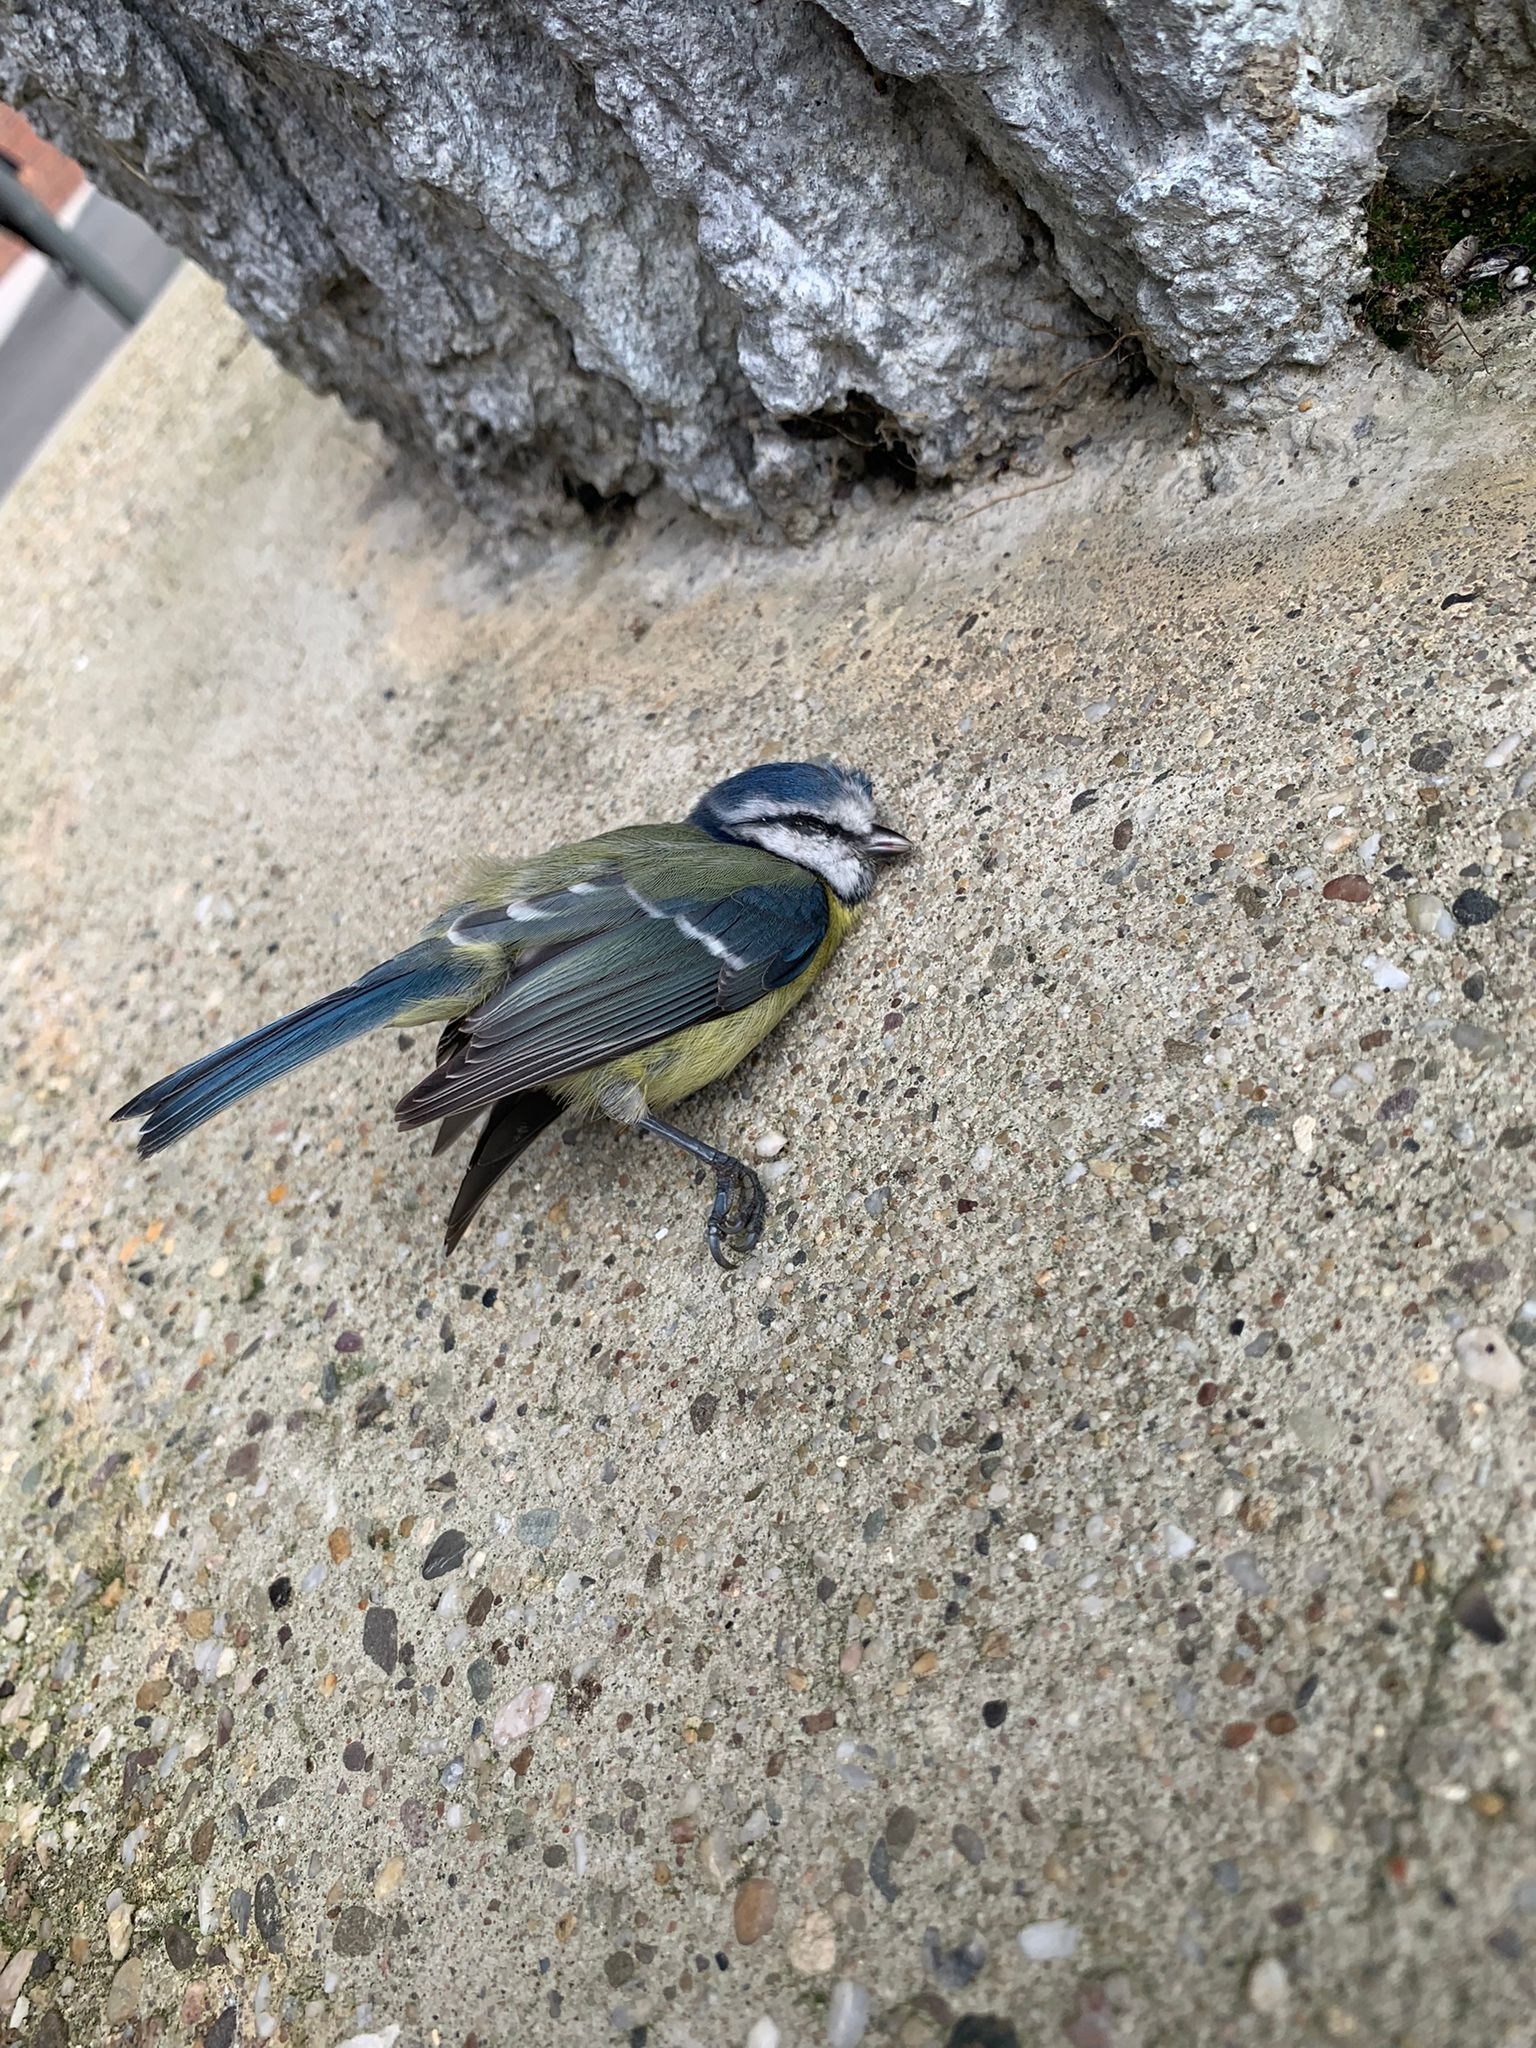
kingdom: Animalia
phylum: Chordata
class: Aves
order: Passeriformes
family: Paridae
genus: Cyanistes
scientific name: Cyanistes caeruleus
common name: Eurasian blue tit
